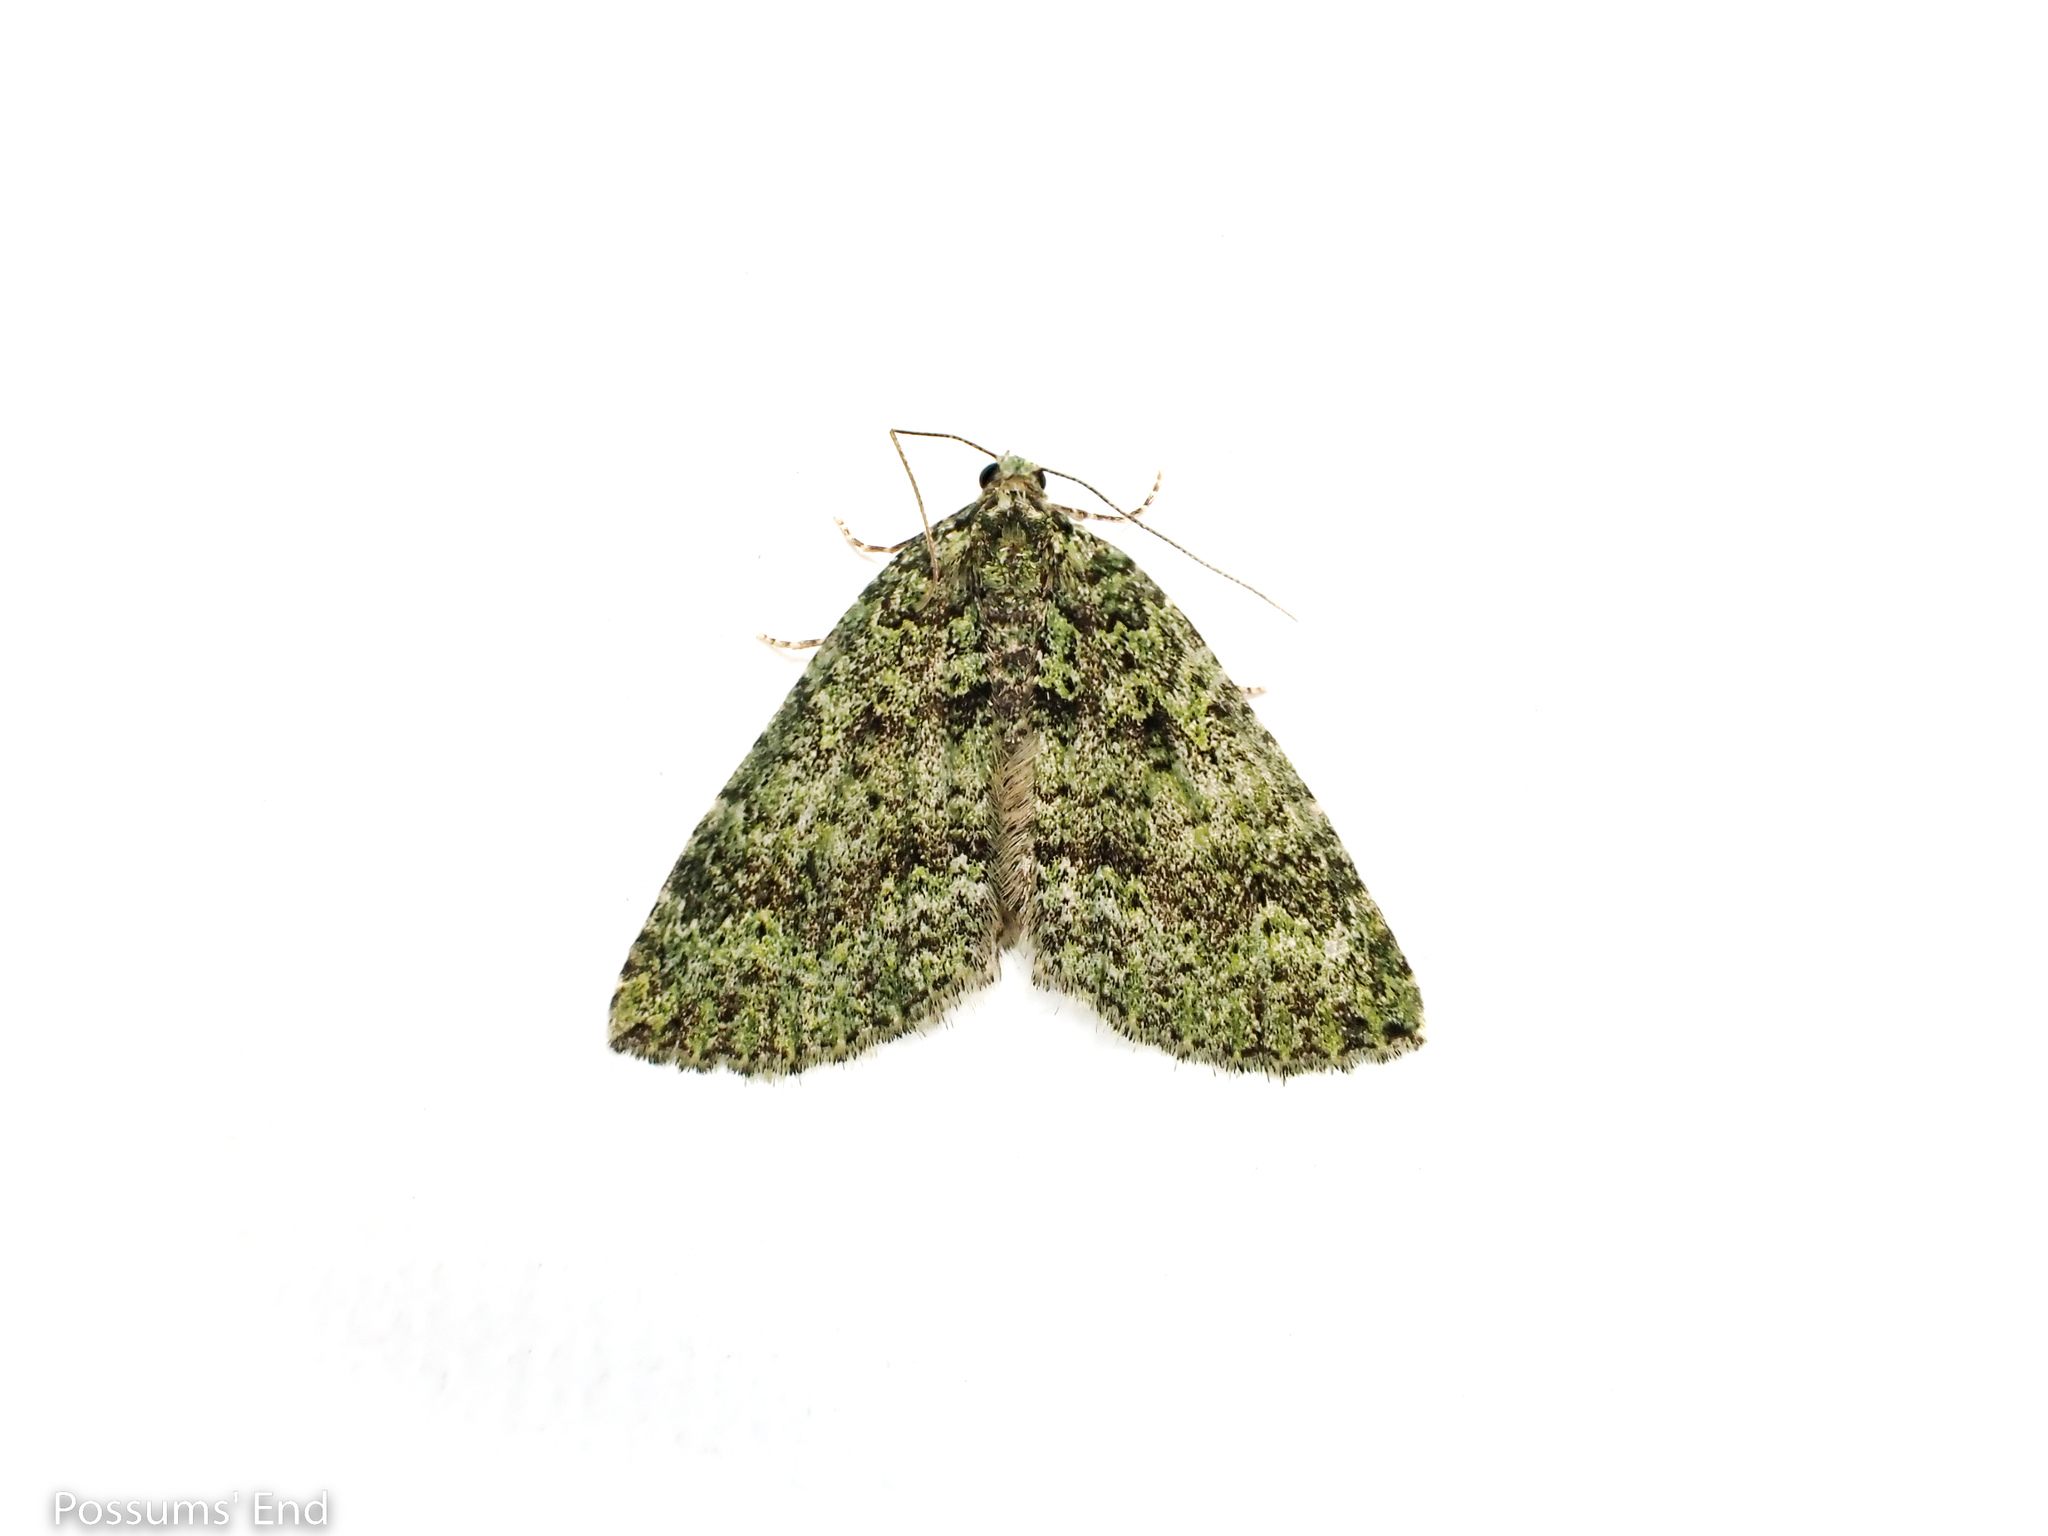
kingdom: Animalia
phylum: Arthropoda
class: Insecta
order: Lepidoptera
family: Geometridae
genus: Austrocidaria
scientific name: Austrocidaria callichlora
